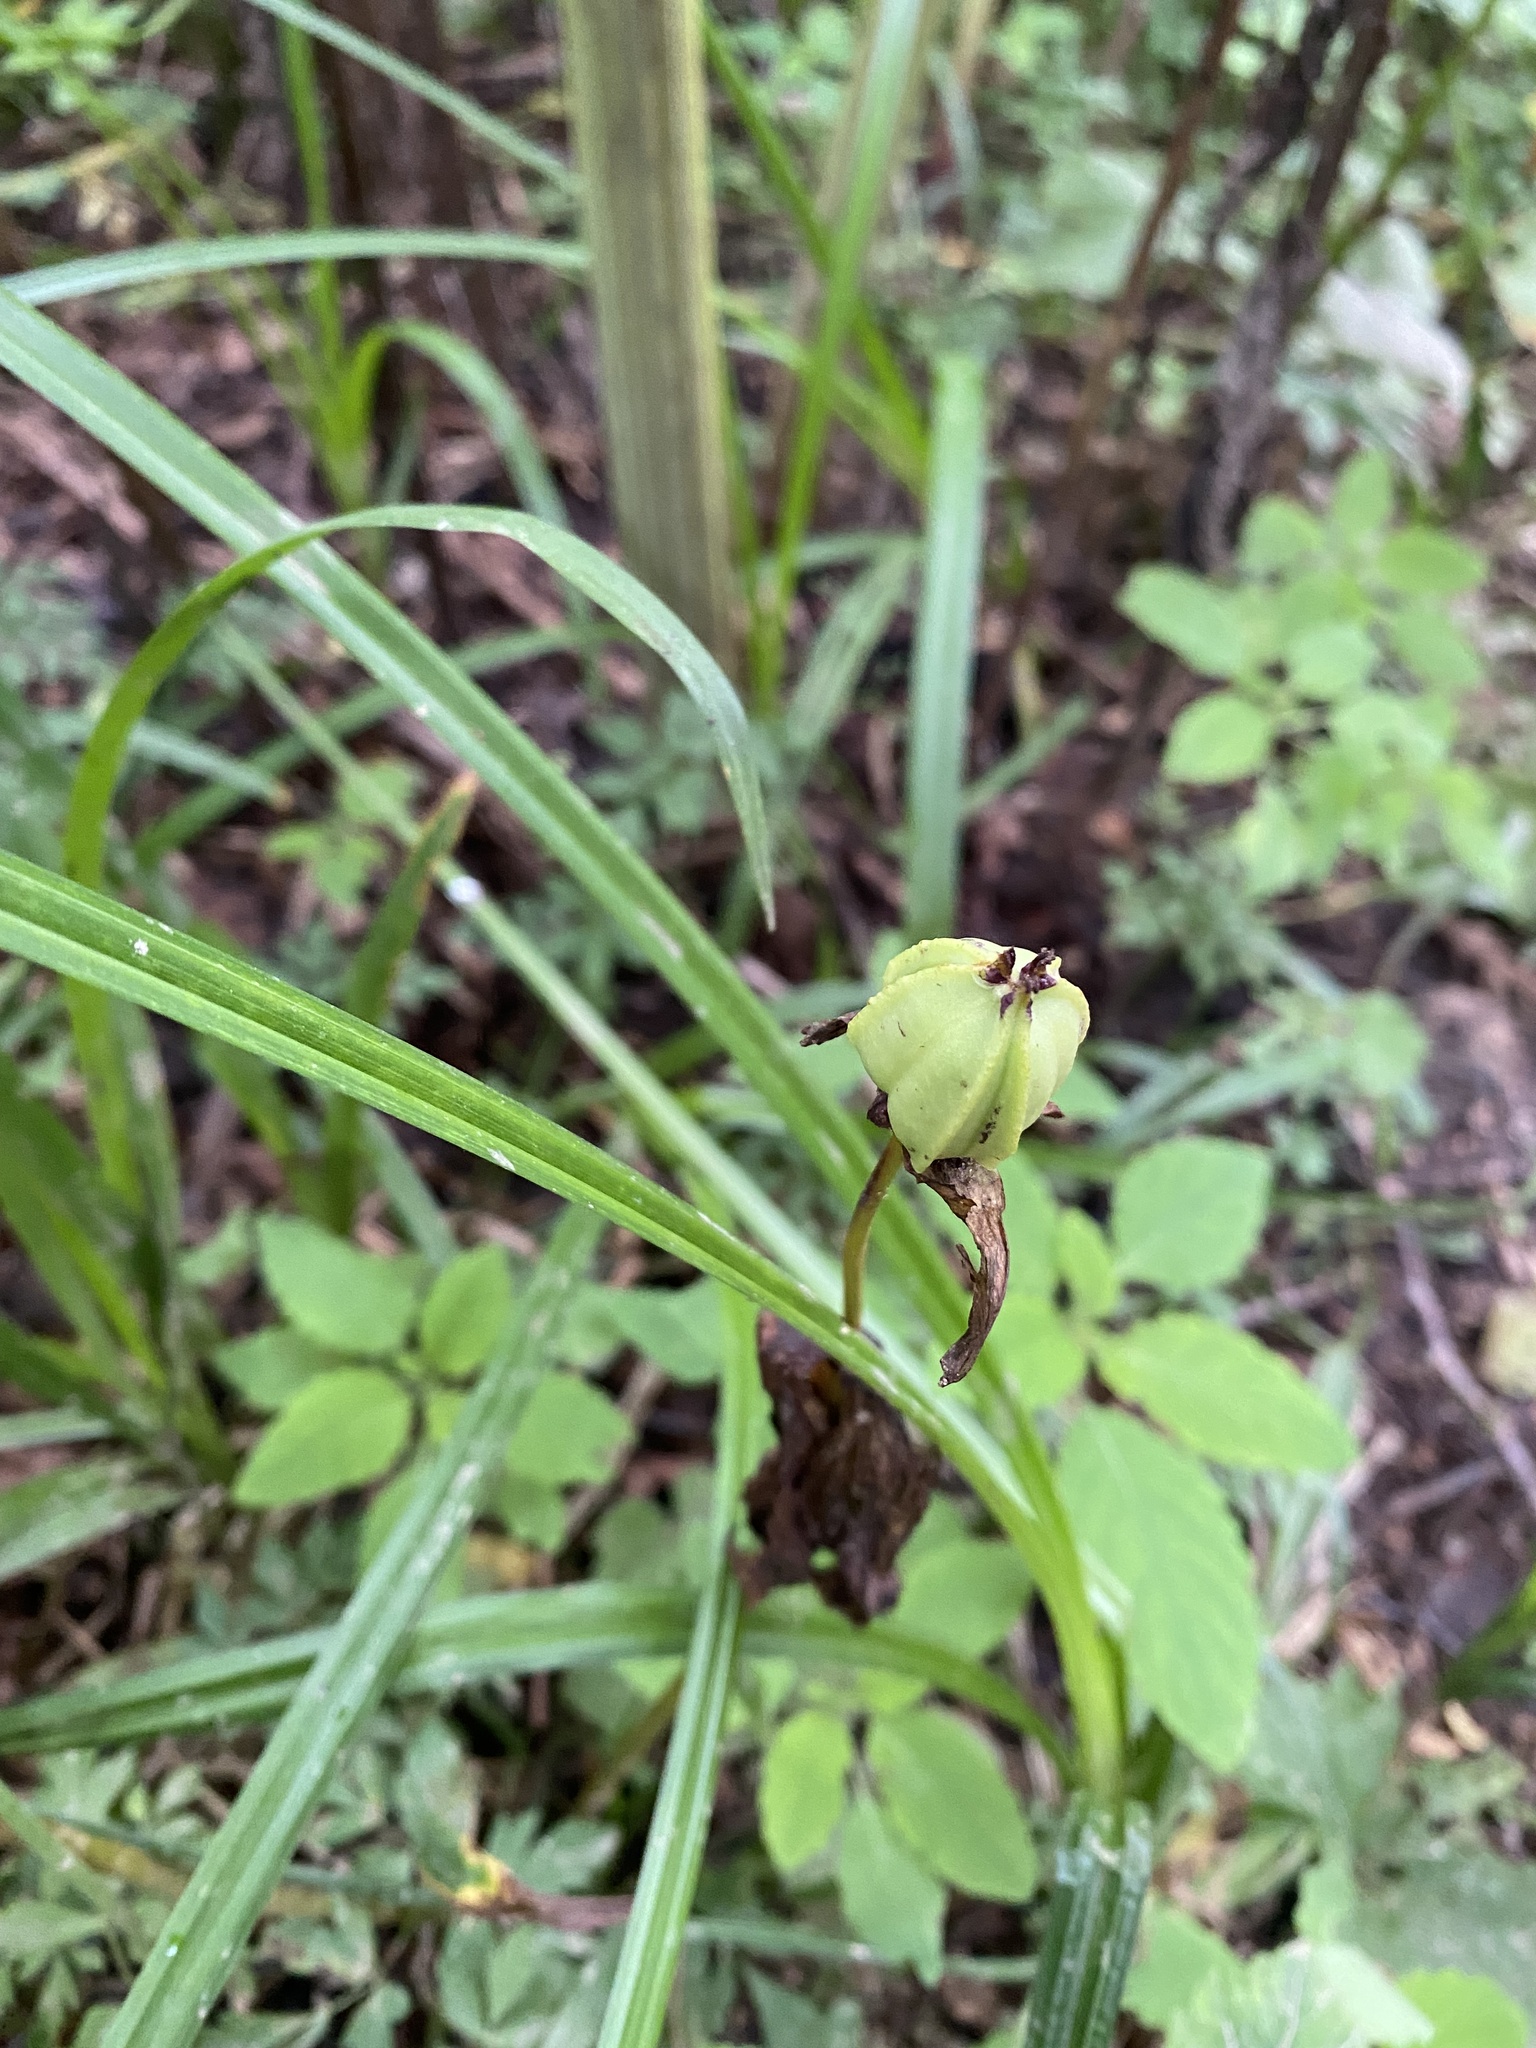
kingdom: Plantae
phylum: Tracheophyta
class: Liliopsida
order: Liliales
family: Melanthiaceae
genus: Trillium
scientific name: Trillium camschatcense
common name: Kamchatka trillium
